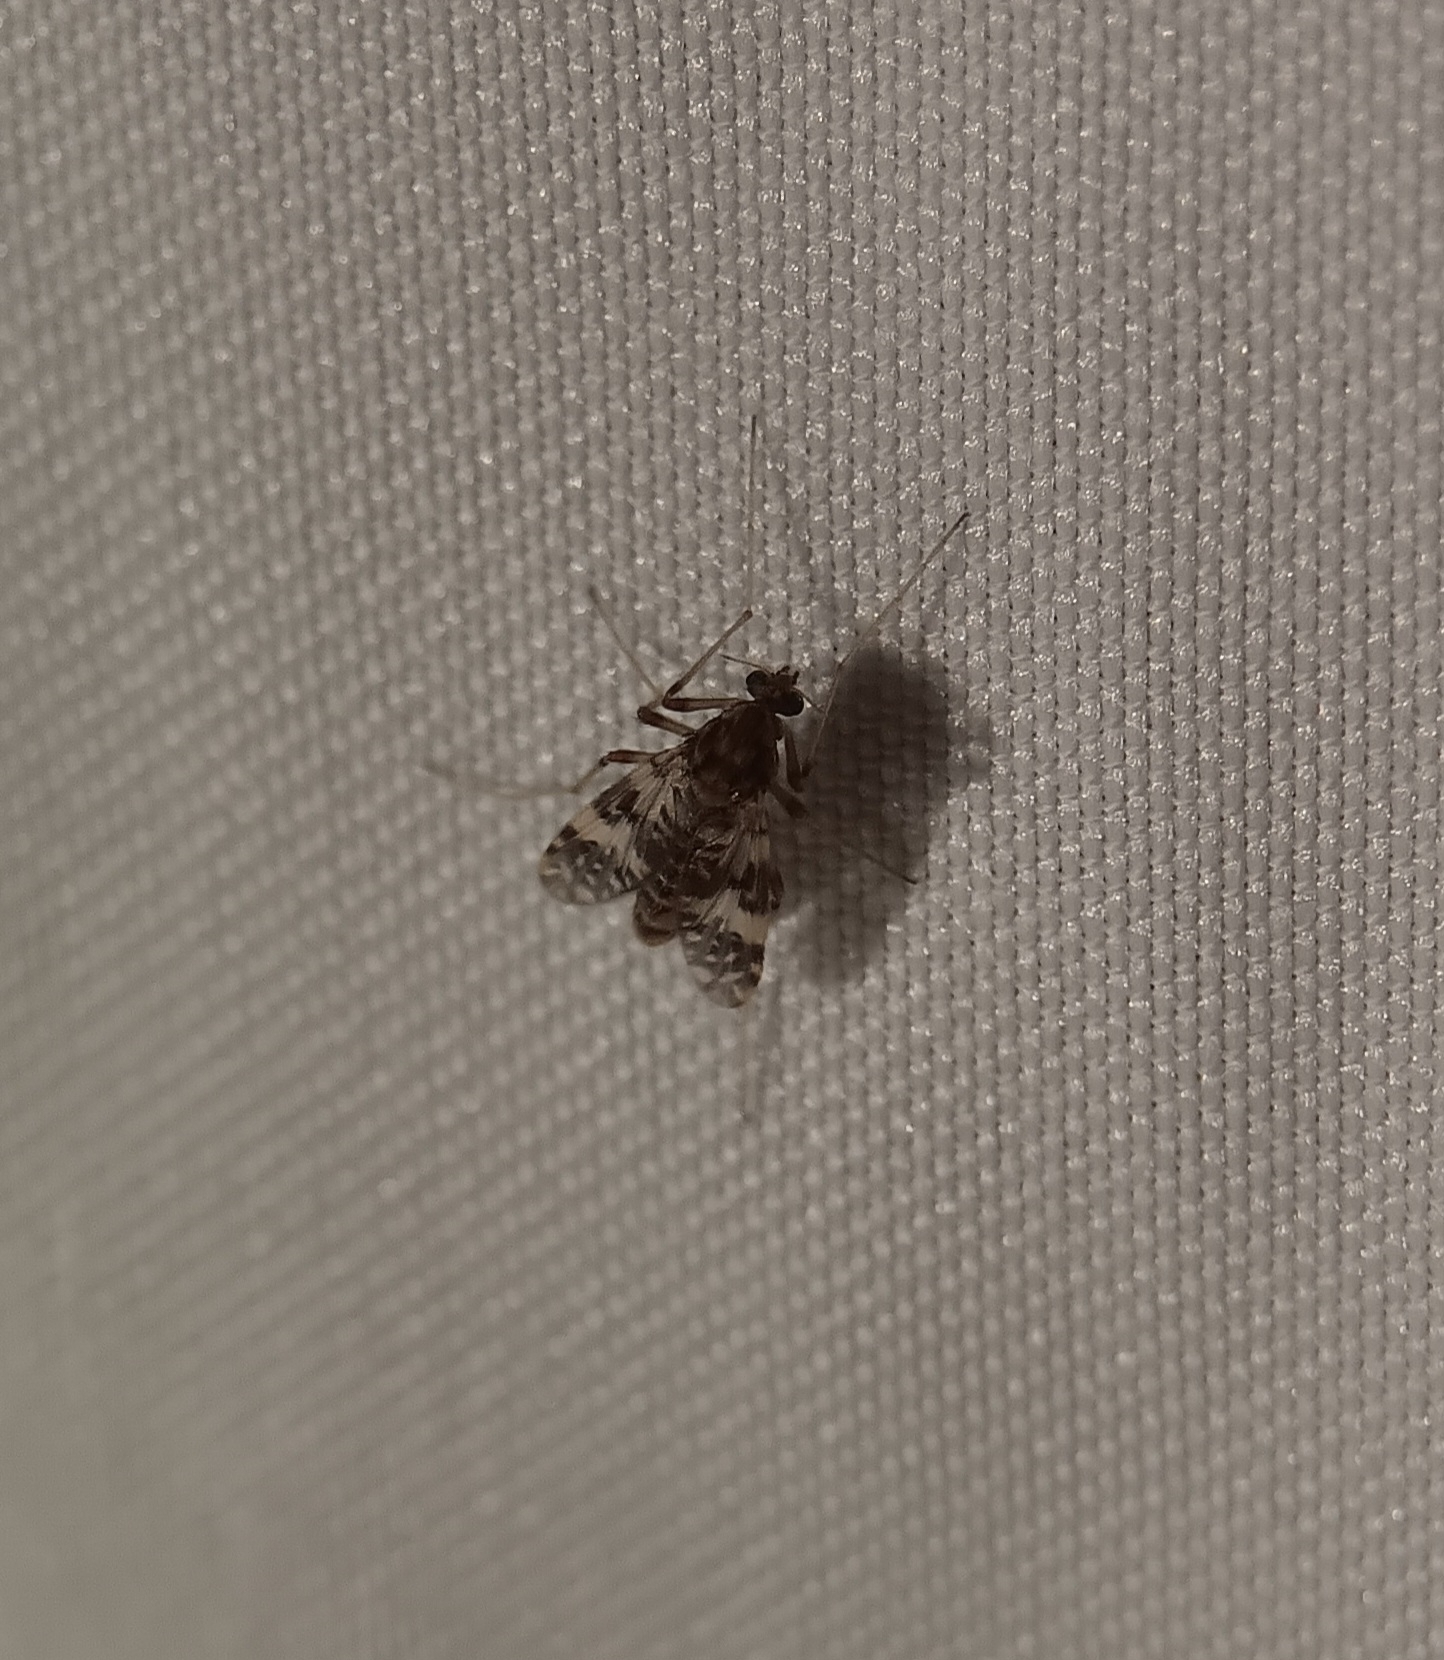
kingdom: Animalia
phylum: Arthropoda
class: Insecta
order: Diptera
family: Chironomidae
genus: Psectrotanypus
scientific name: Psectrotanypus dyari
